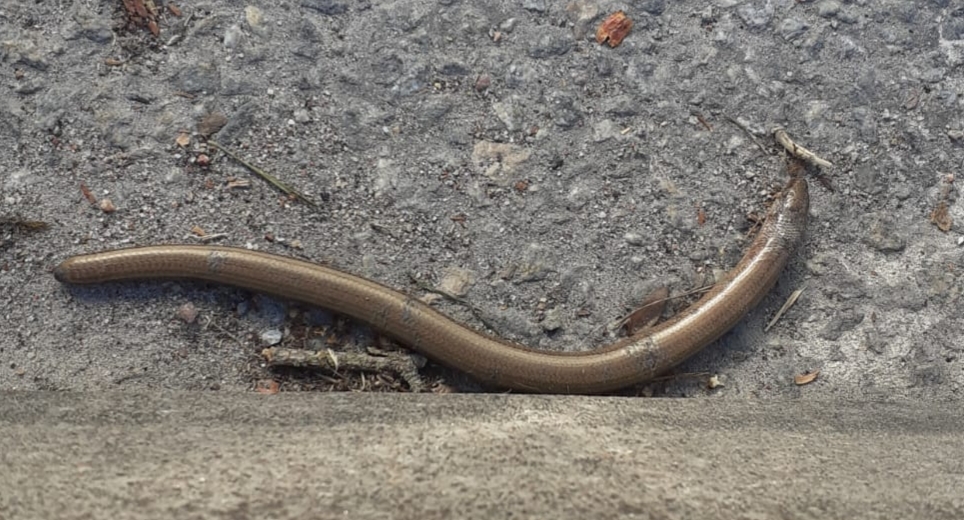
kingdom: Animalia
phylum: Chordata
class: Squamata
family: Anguidae
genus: Anguis
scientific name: Anguis fragilis
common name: Slow worm
